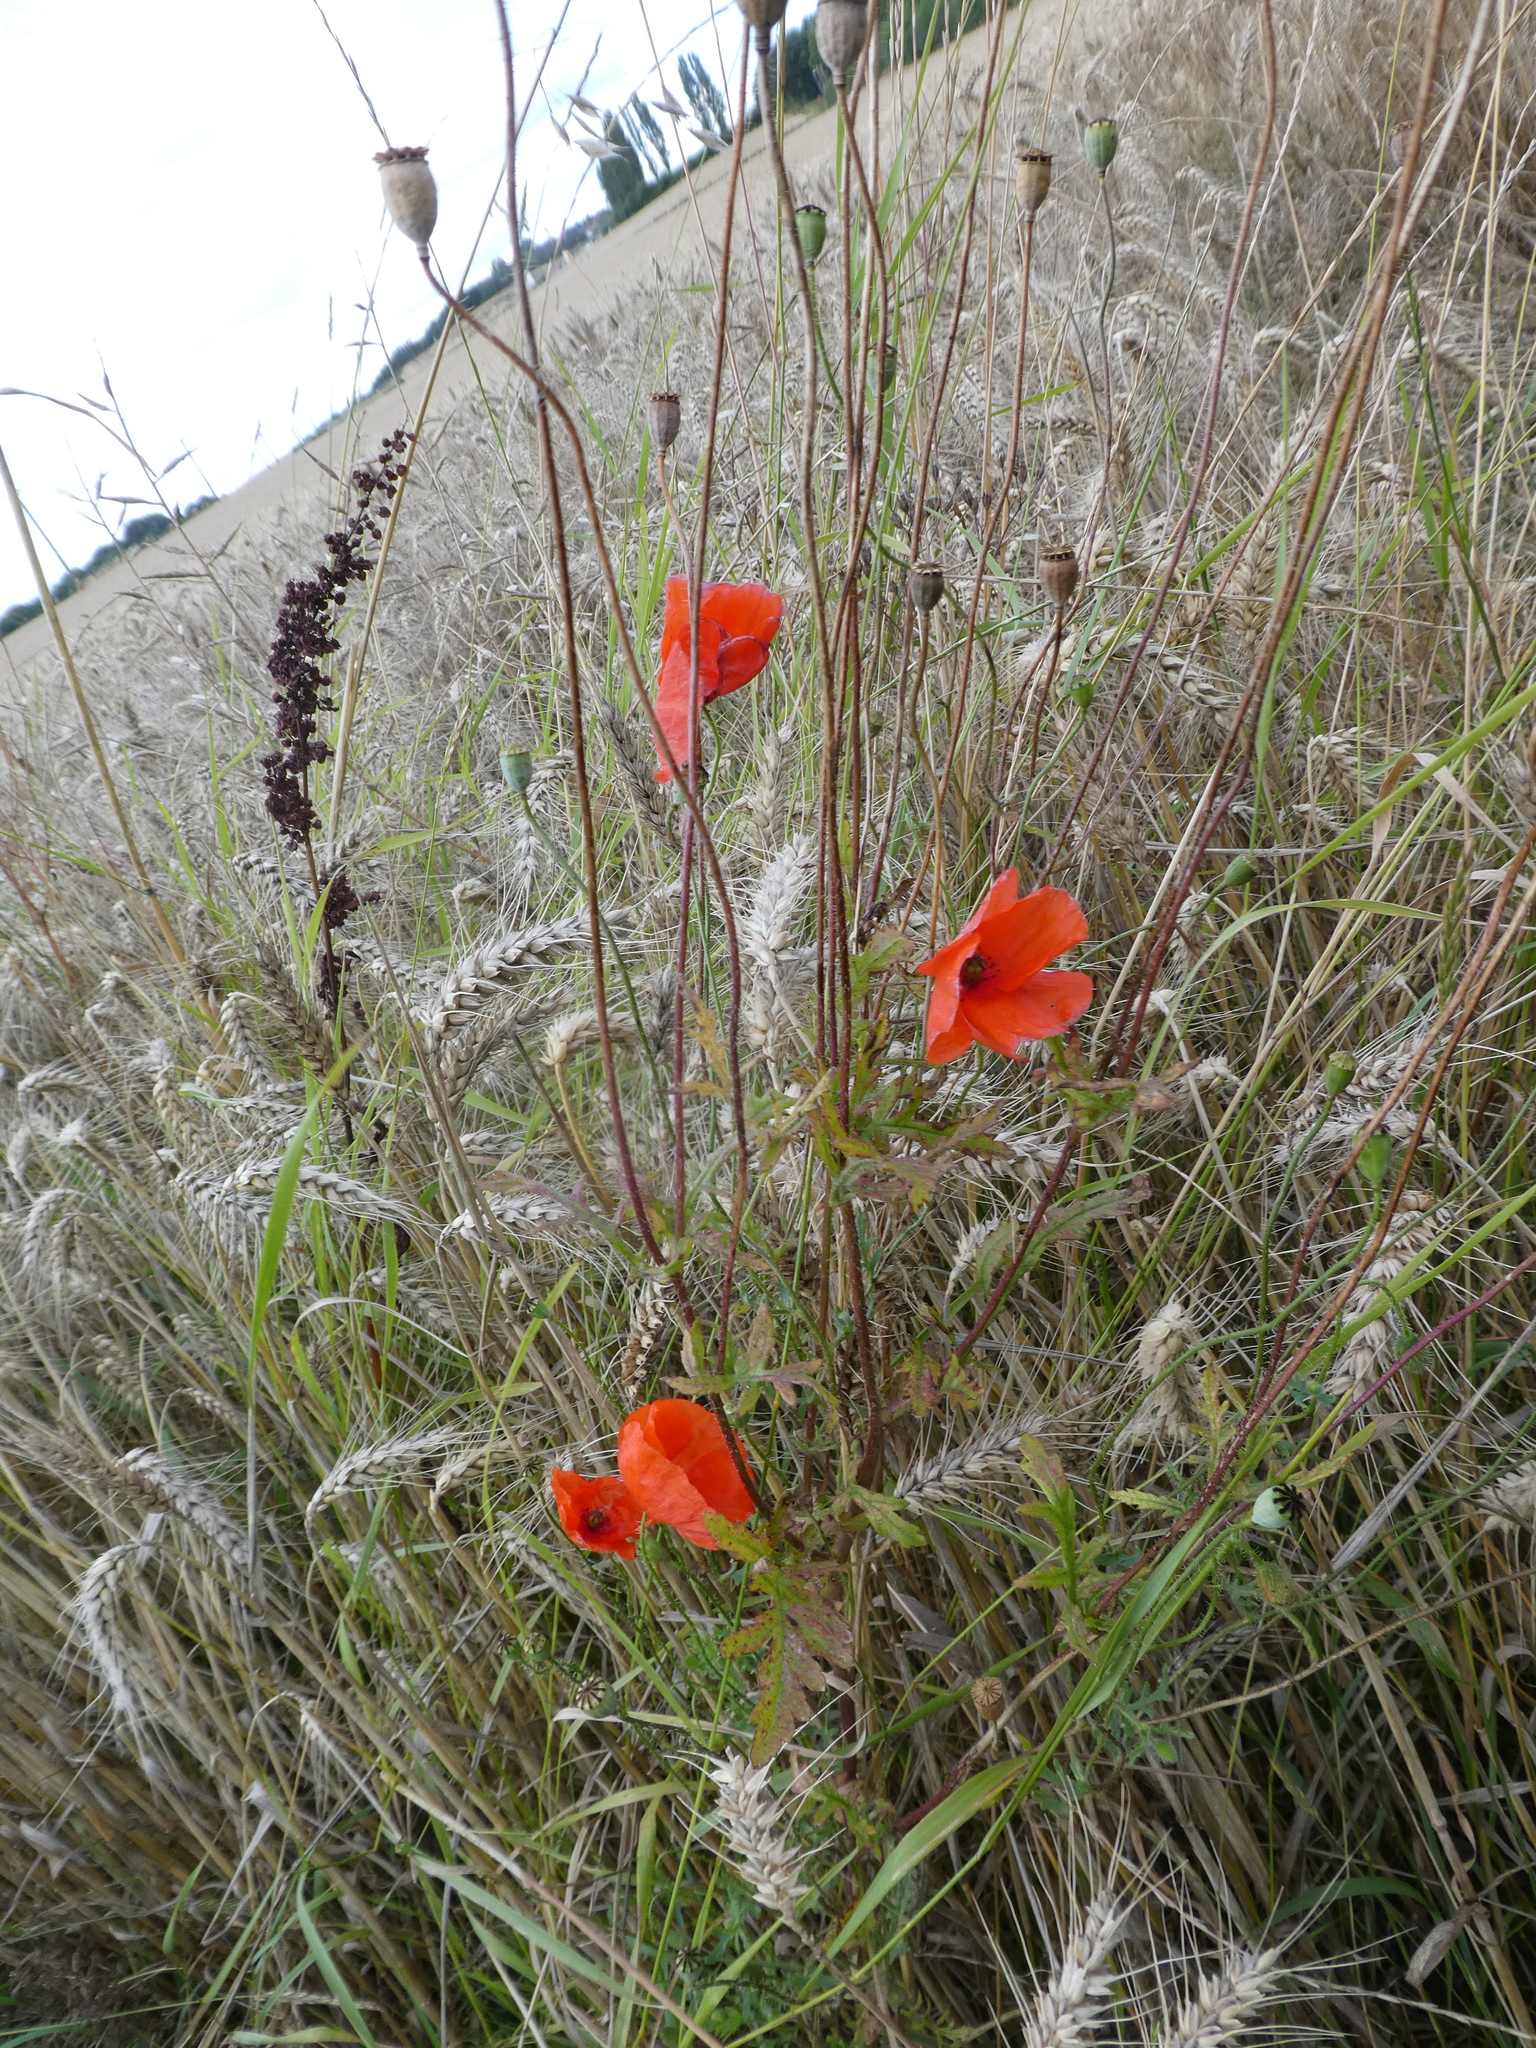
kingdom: Plantae
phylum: Tracheophyta
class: Magnoliopsida
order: Ranunculales
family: Papaveraceae
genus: Papaver
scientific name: Papaver rhoeas
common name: Corn poppy
